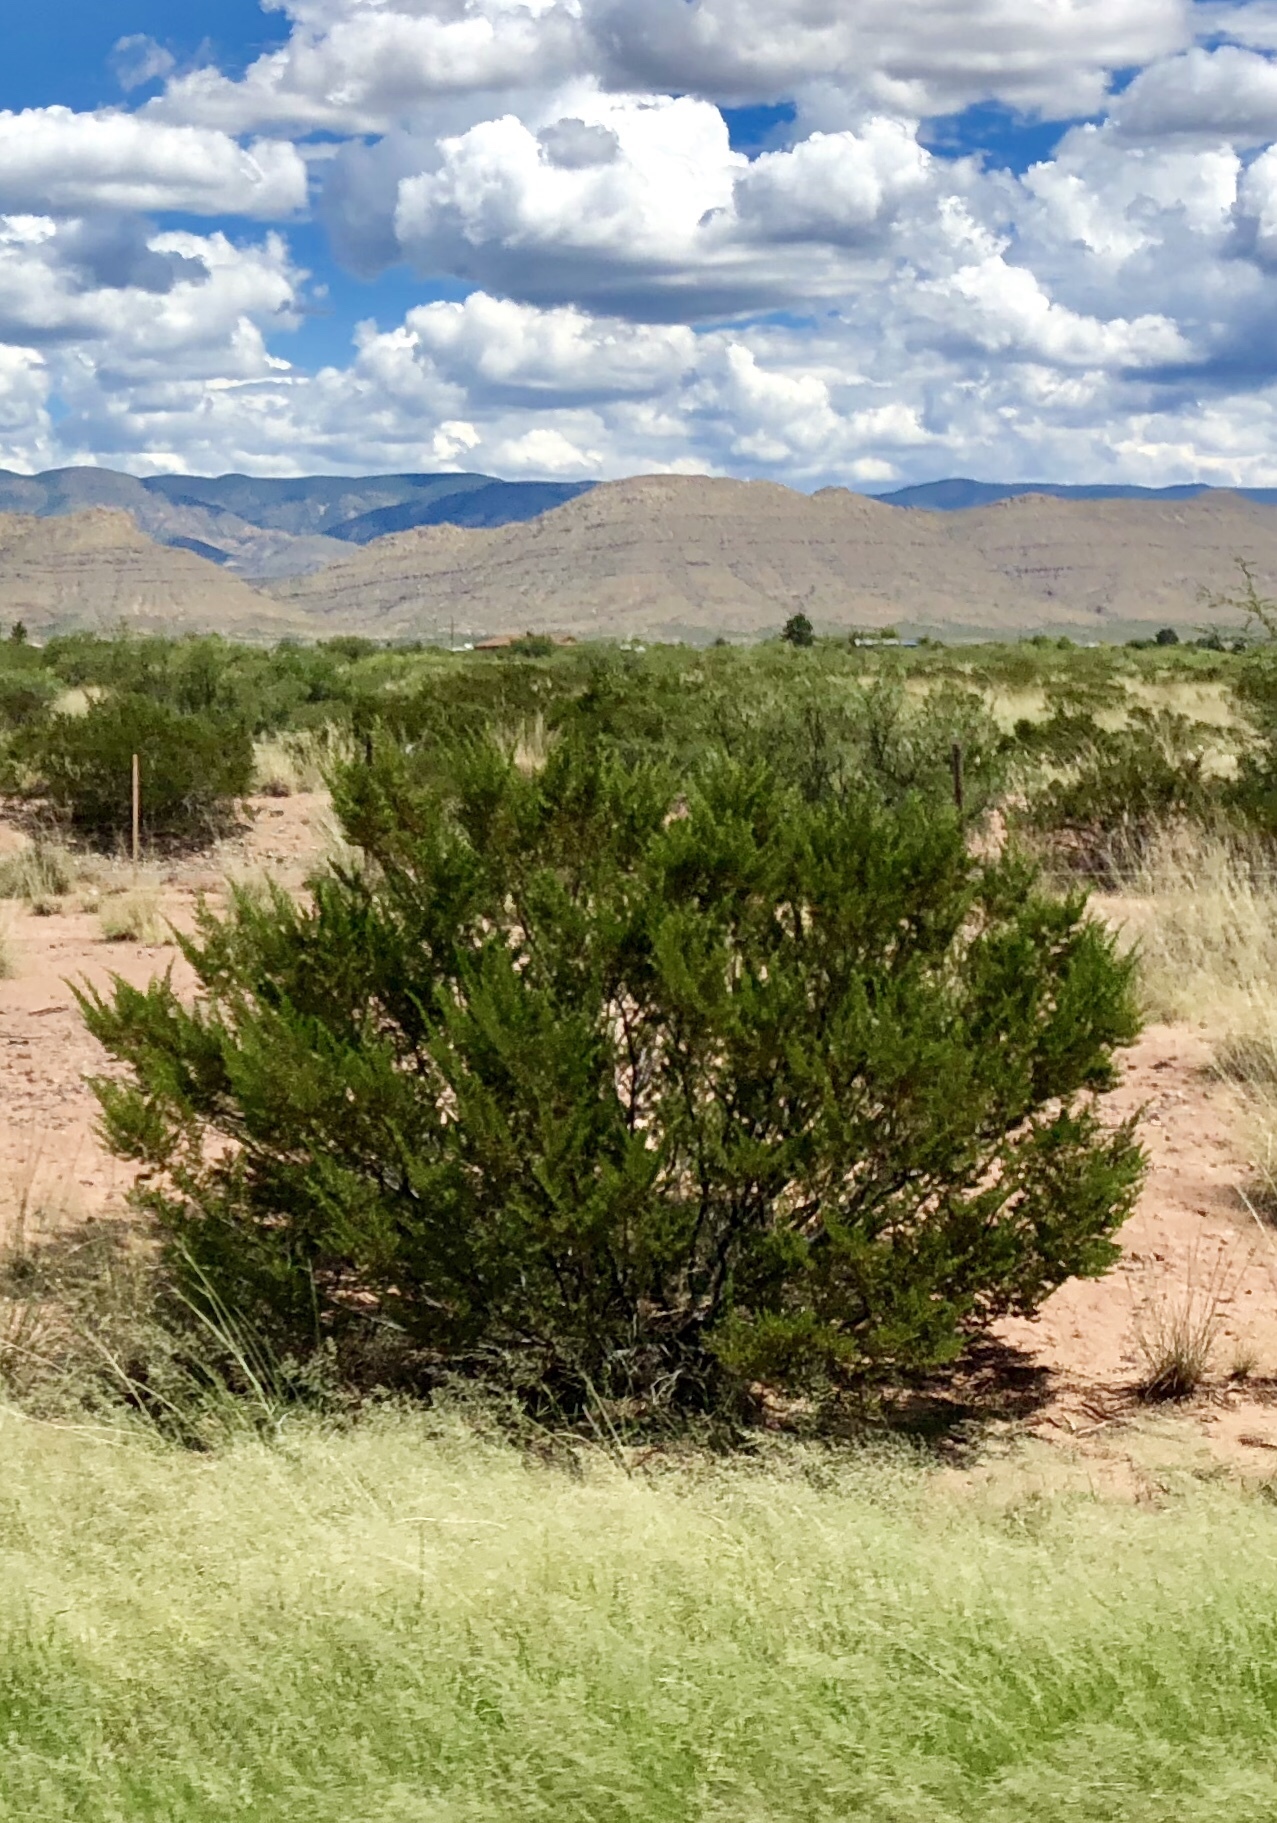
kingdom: Plantae
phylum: Tracheophyta
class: Magnoliopsida
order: Zygophyllales
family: Zygophyllaceae
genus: Larrea
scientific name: Larrea tridentata
